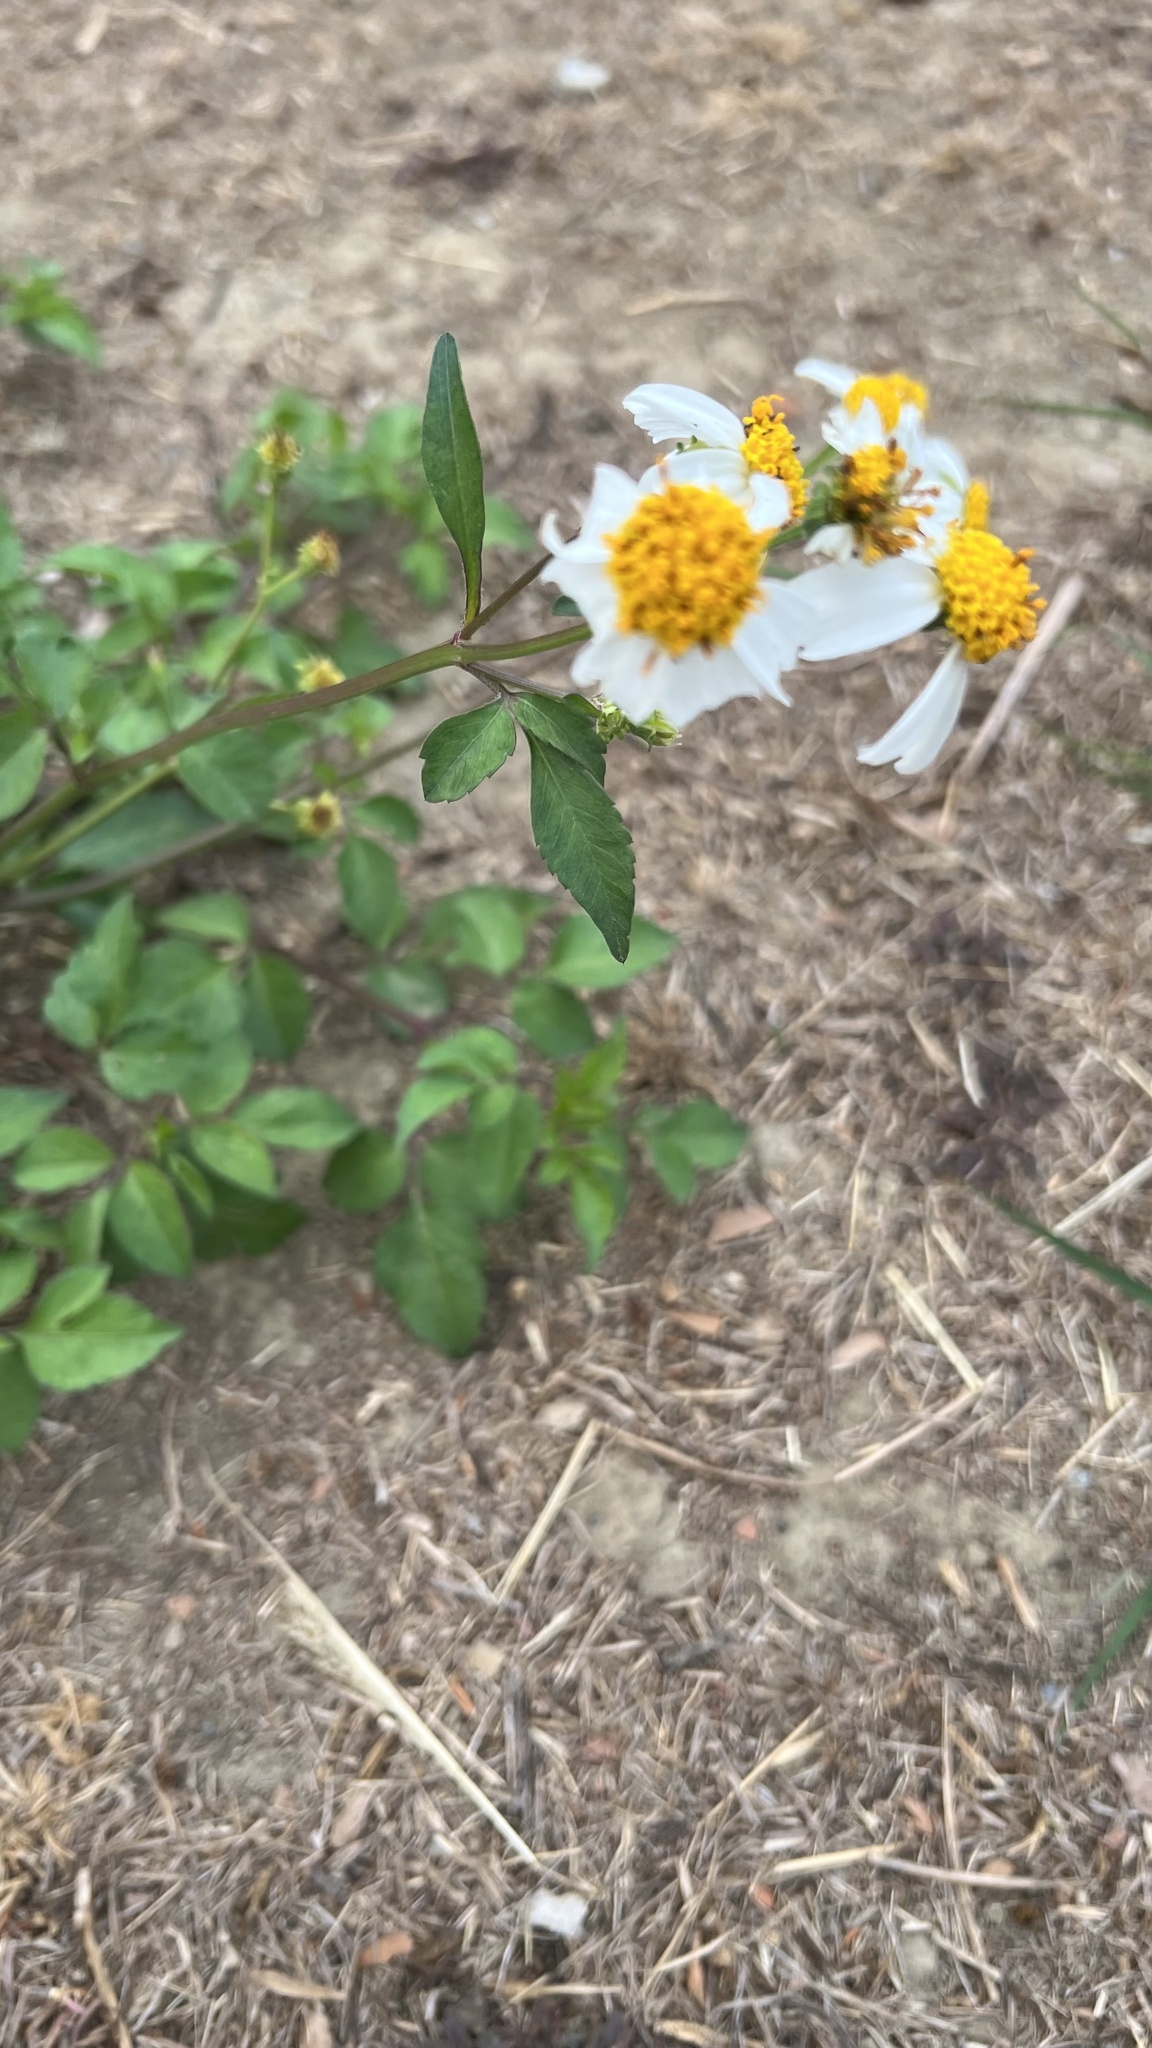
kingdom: Plantae
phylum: Tracheophyta
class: Magnoliopsida
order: Asterales
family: Asteraceae
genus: Bidens
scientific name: Bidens alba
